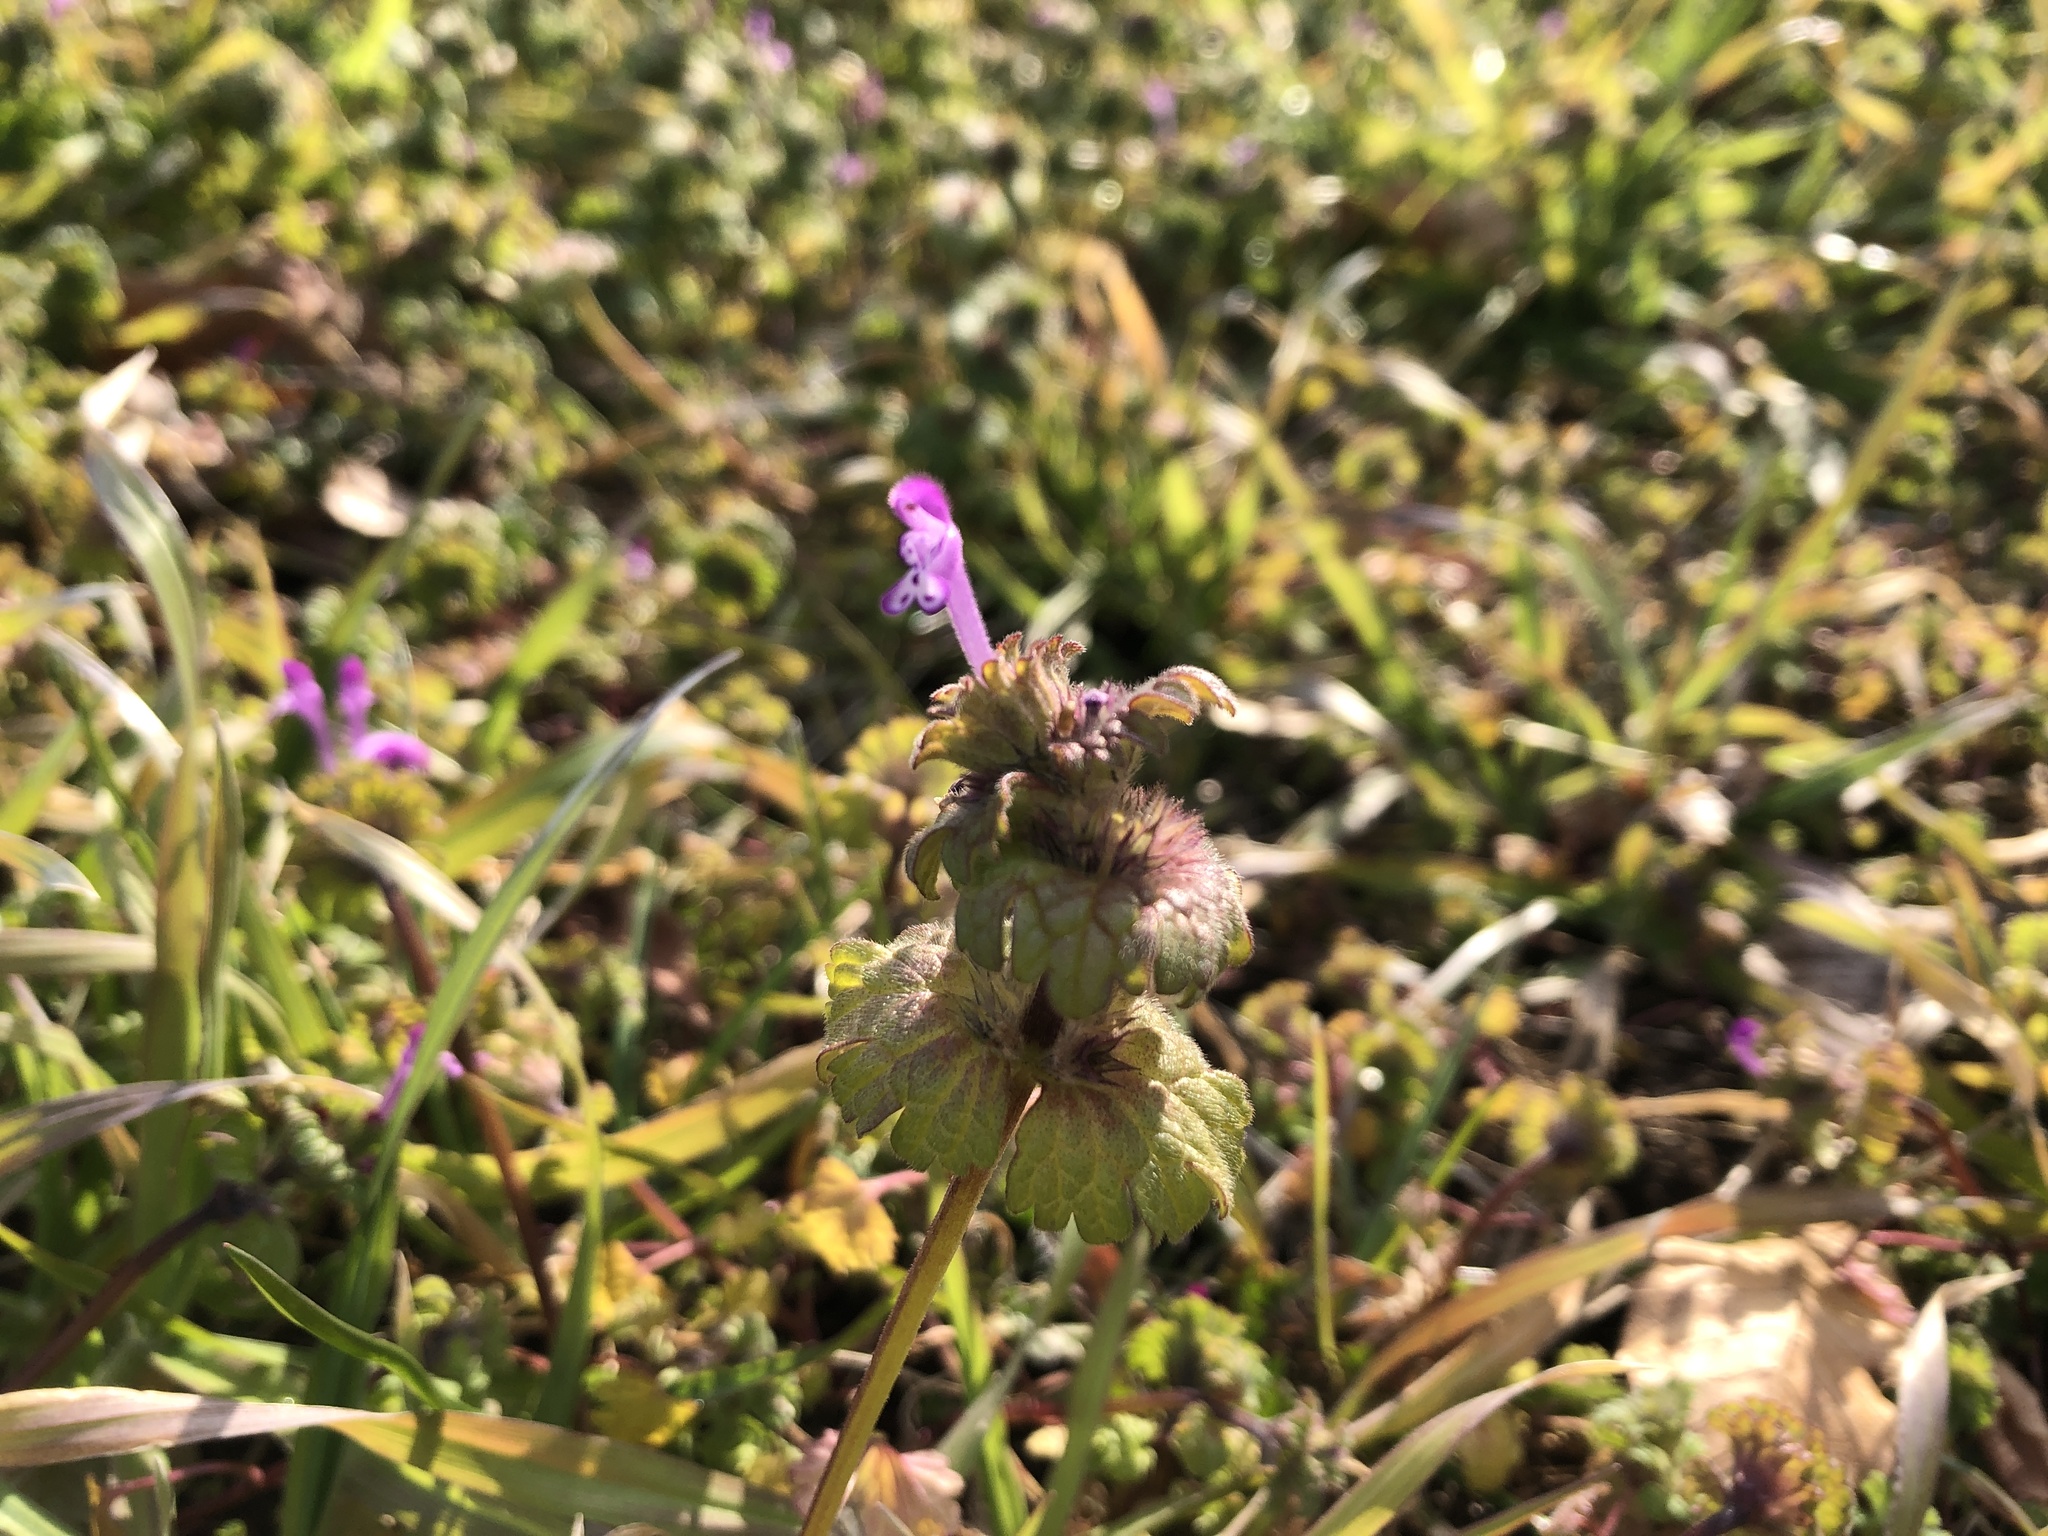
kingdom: Plantae
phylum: Tracheophyta
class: Magnoliopsida
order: Lamiales
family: Lamiaceae
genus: Lamium
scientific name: Lamium amplexicaule
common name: Henbit dead-nettle
